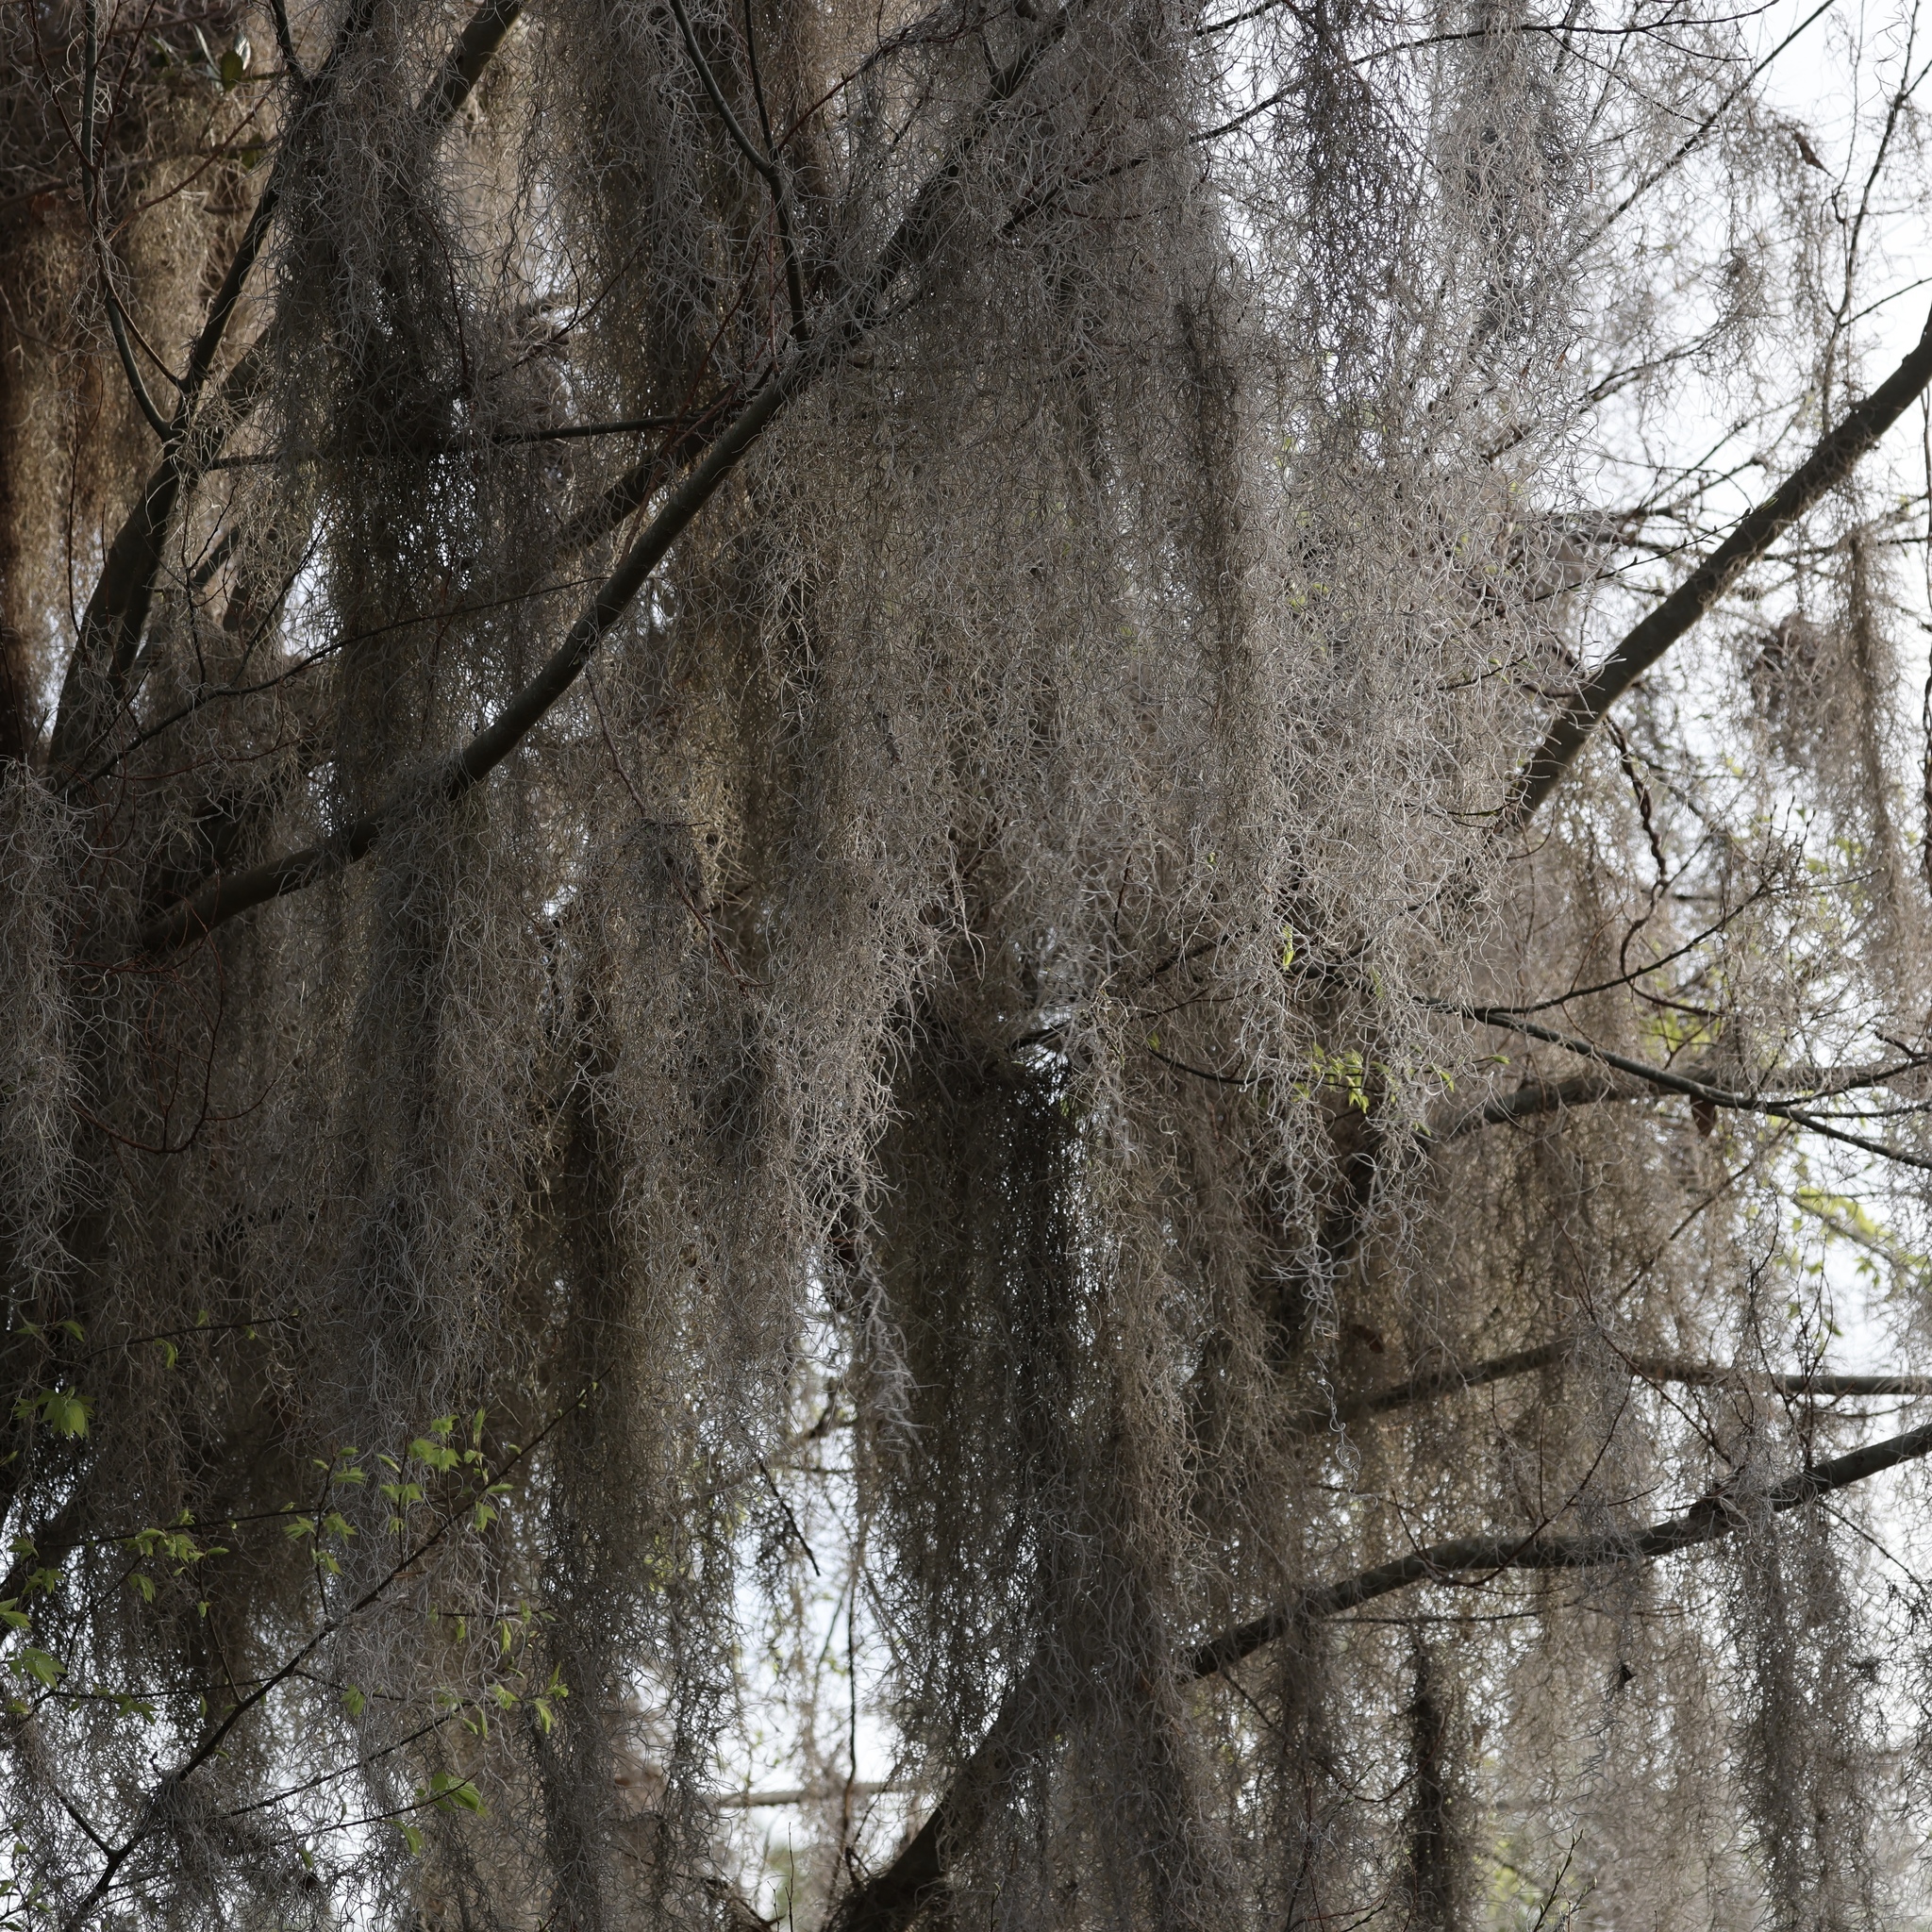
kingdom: Plantae
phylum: Tracheophyta
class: Liliopsida
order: Poales
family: Bromeliaceae
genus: Tillandsia
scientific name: Tillandsia usneoides
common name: Spanish moss
